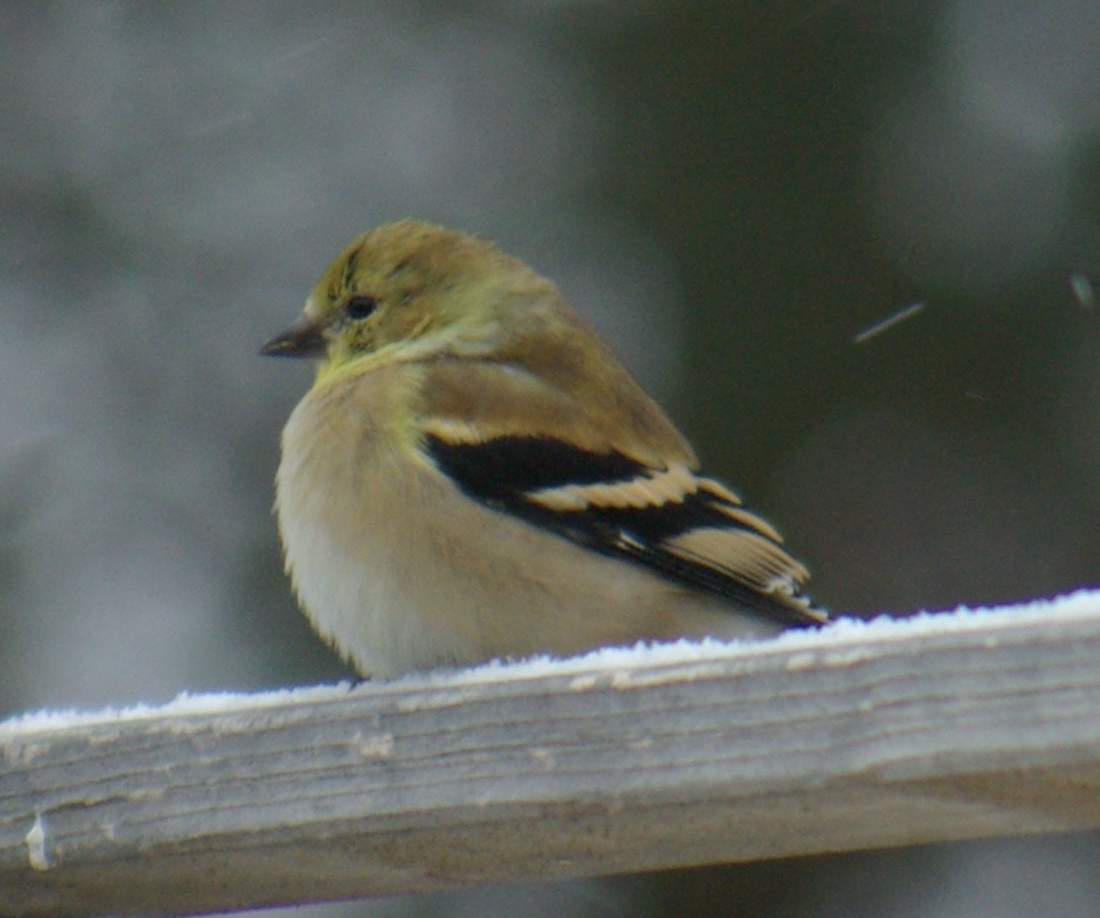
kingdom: Animalia
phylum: Chordata
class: Aves
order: Passeriformes
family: Fringillidae
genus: Spinus
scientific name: Spinus tristis
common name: American goldfinch
